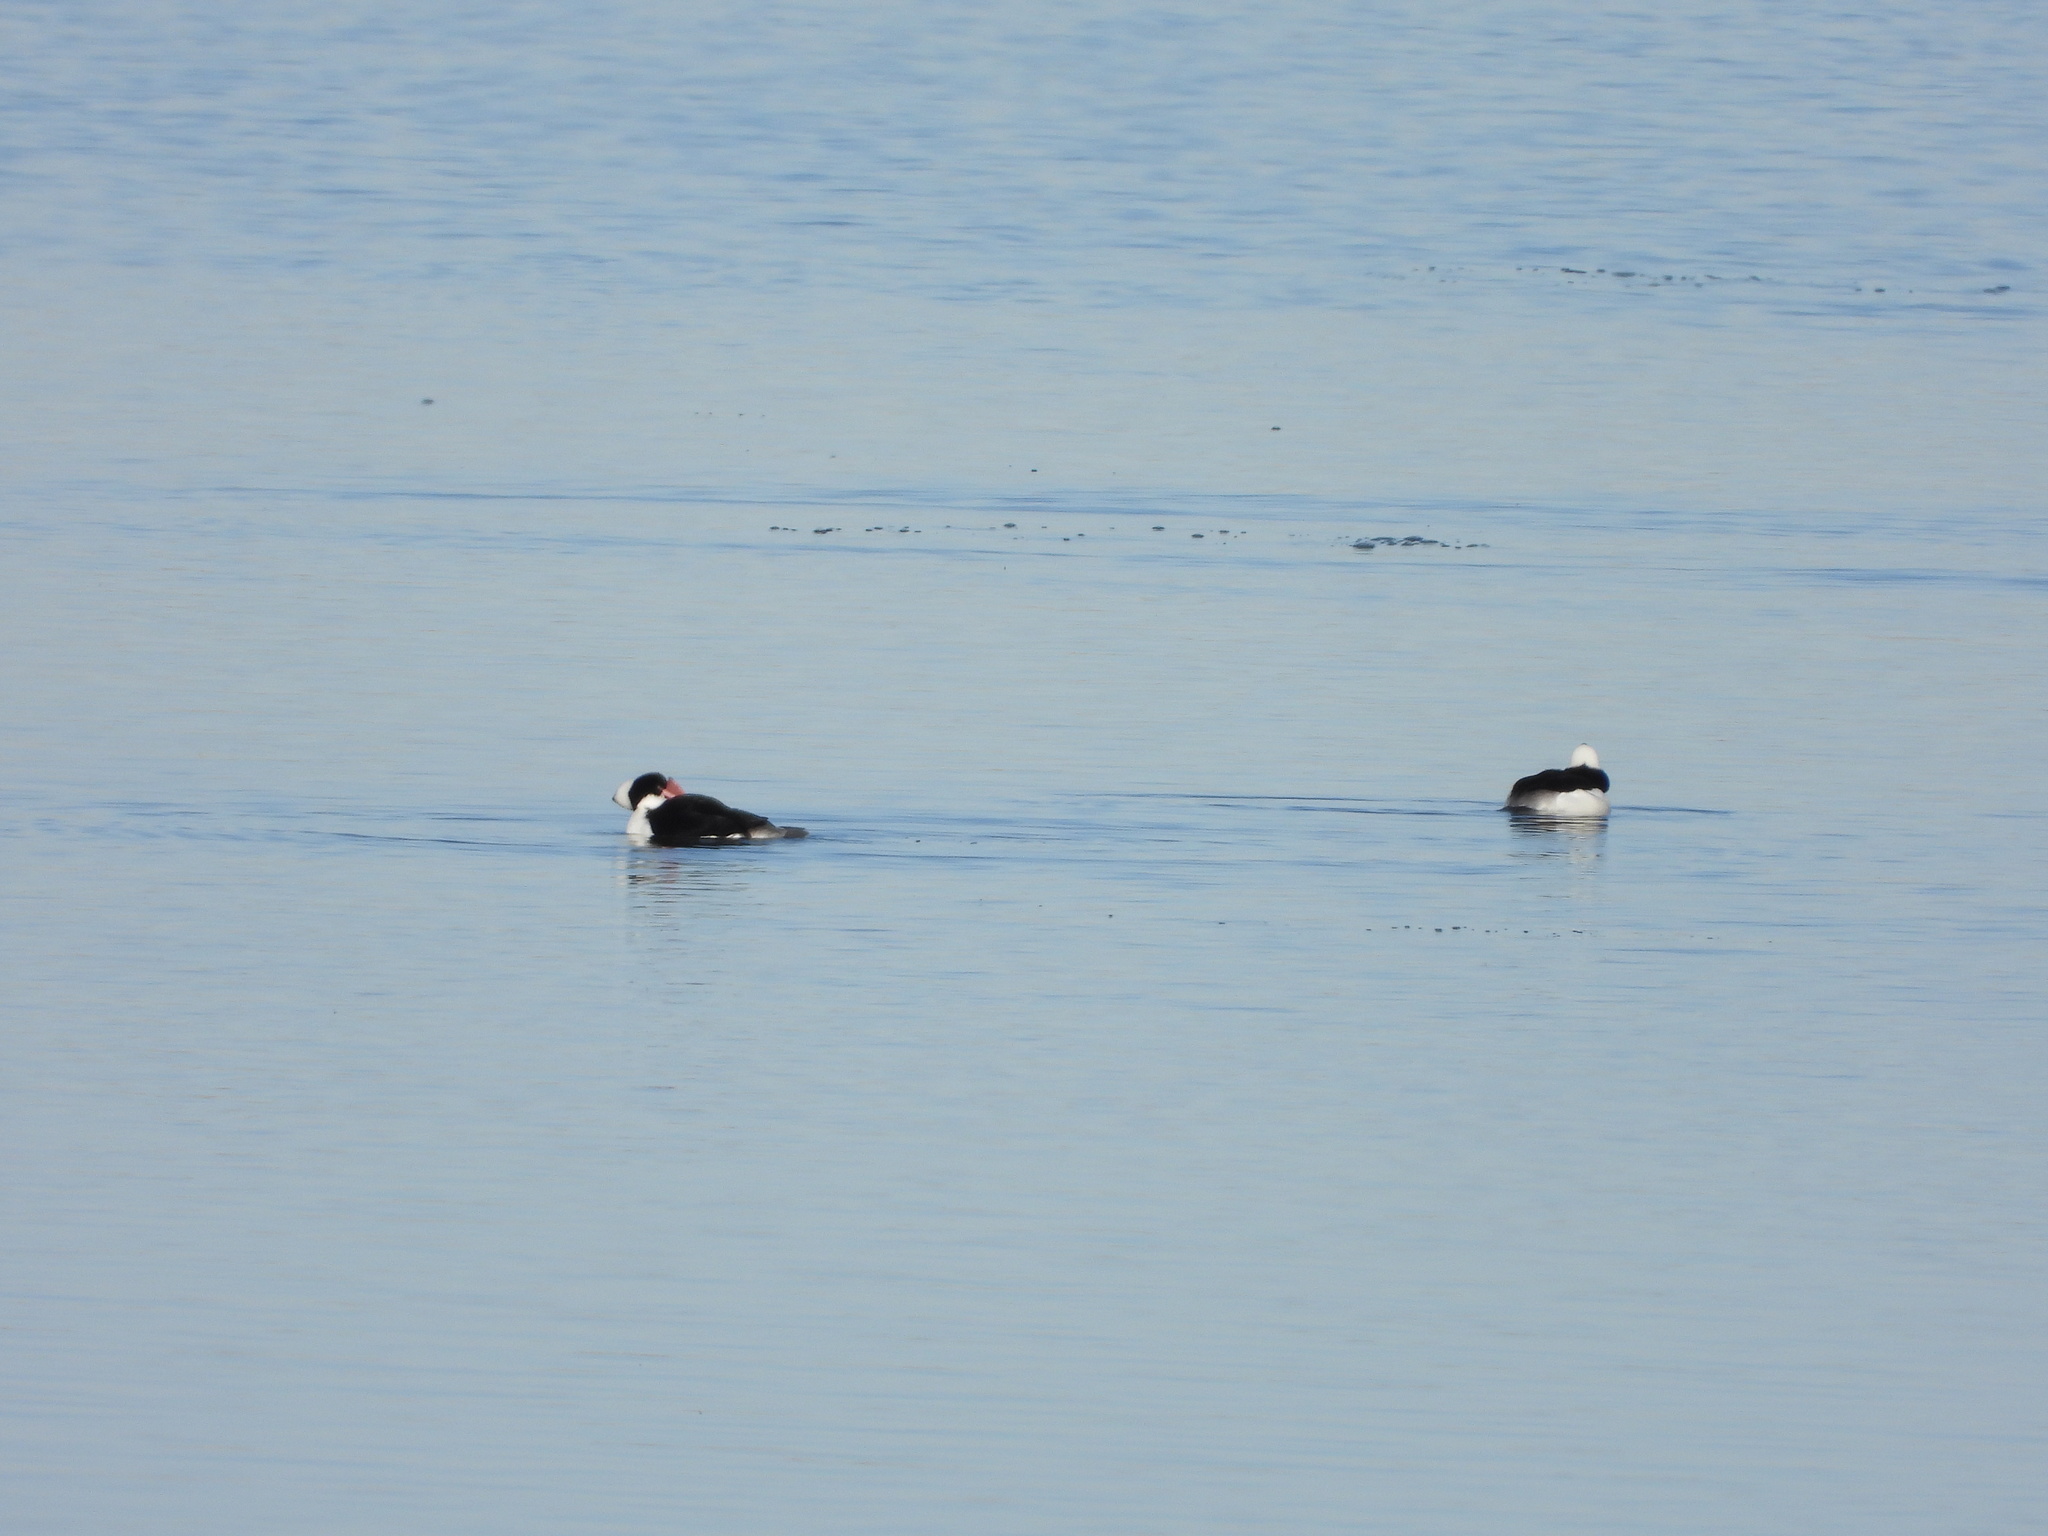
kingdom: Animalia
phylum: Chordata
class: Aves
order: Anseriformes
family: Anatidae
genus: Bucephala
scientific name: Bucephala albeola
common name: Bufflehead
